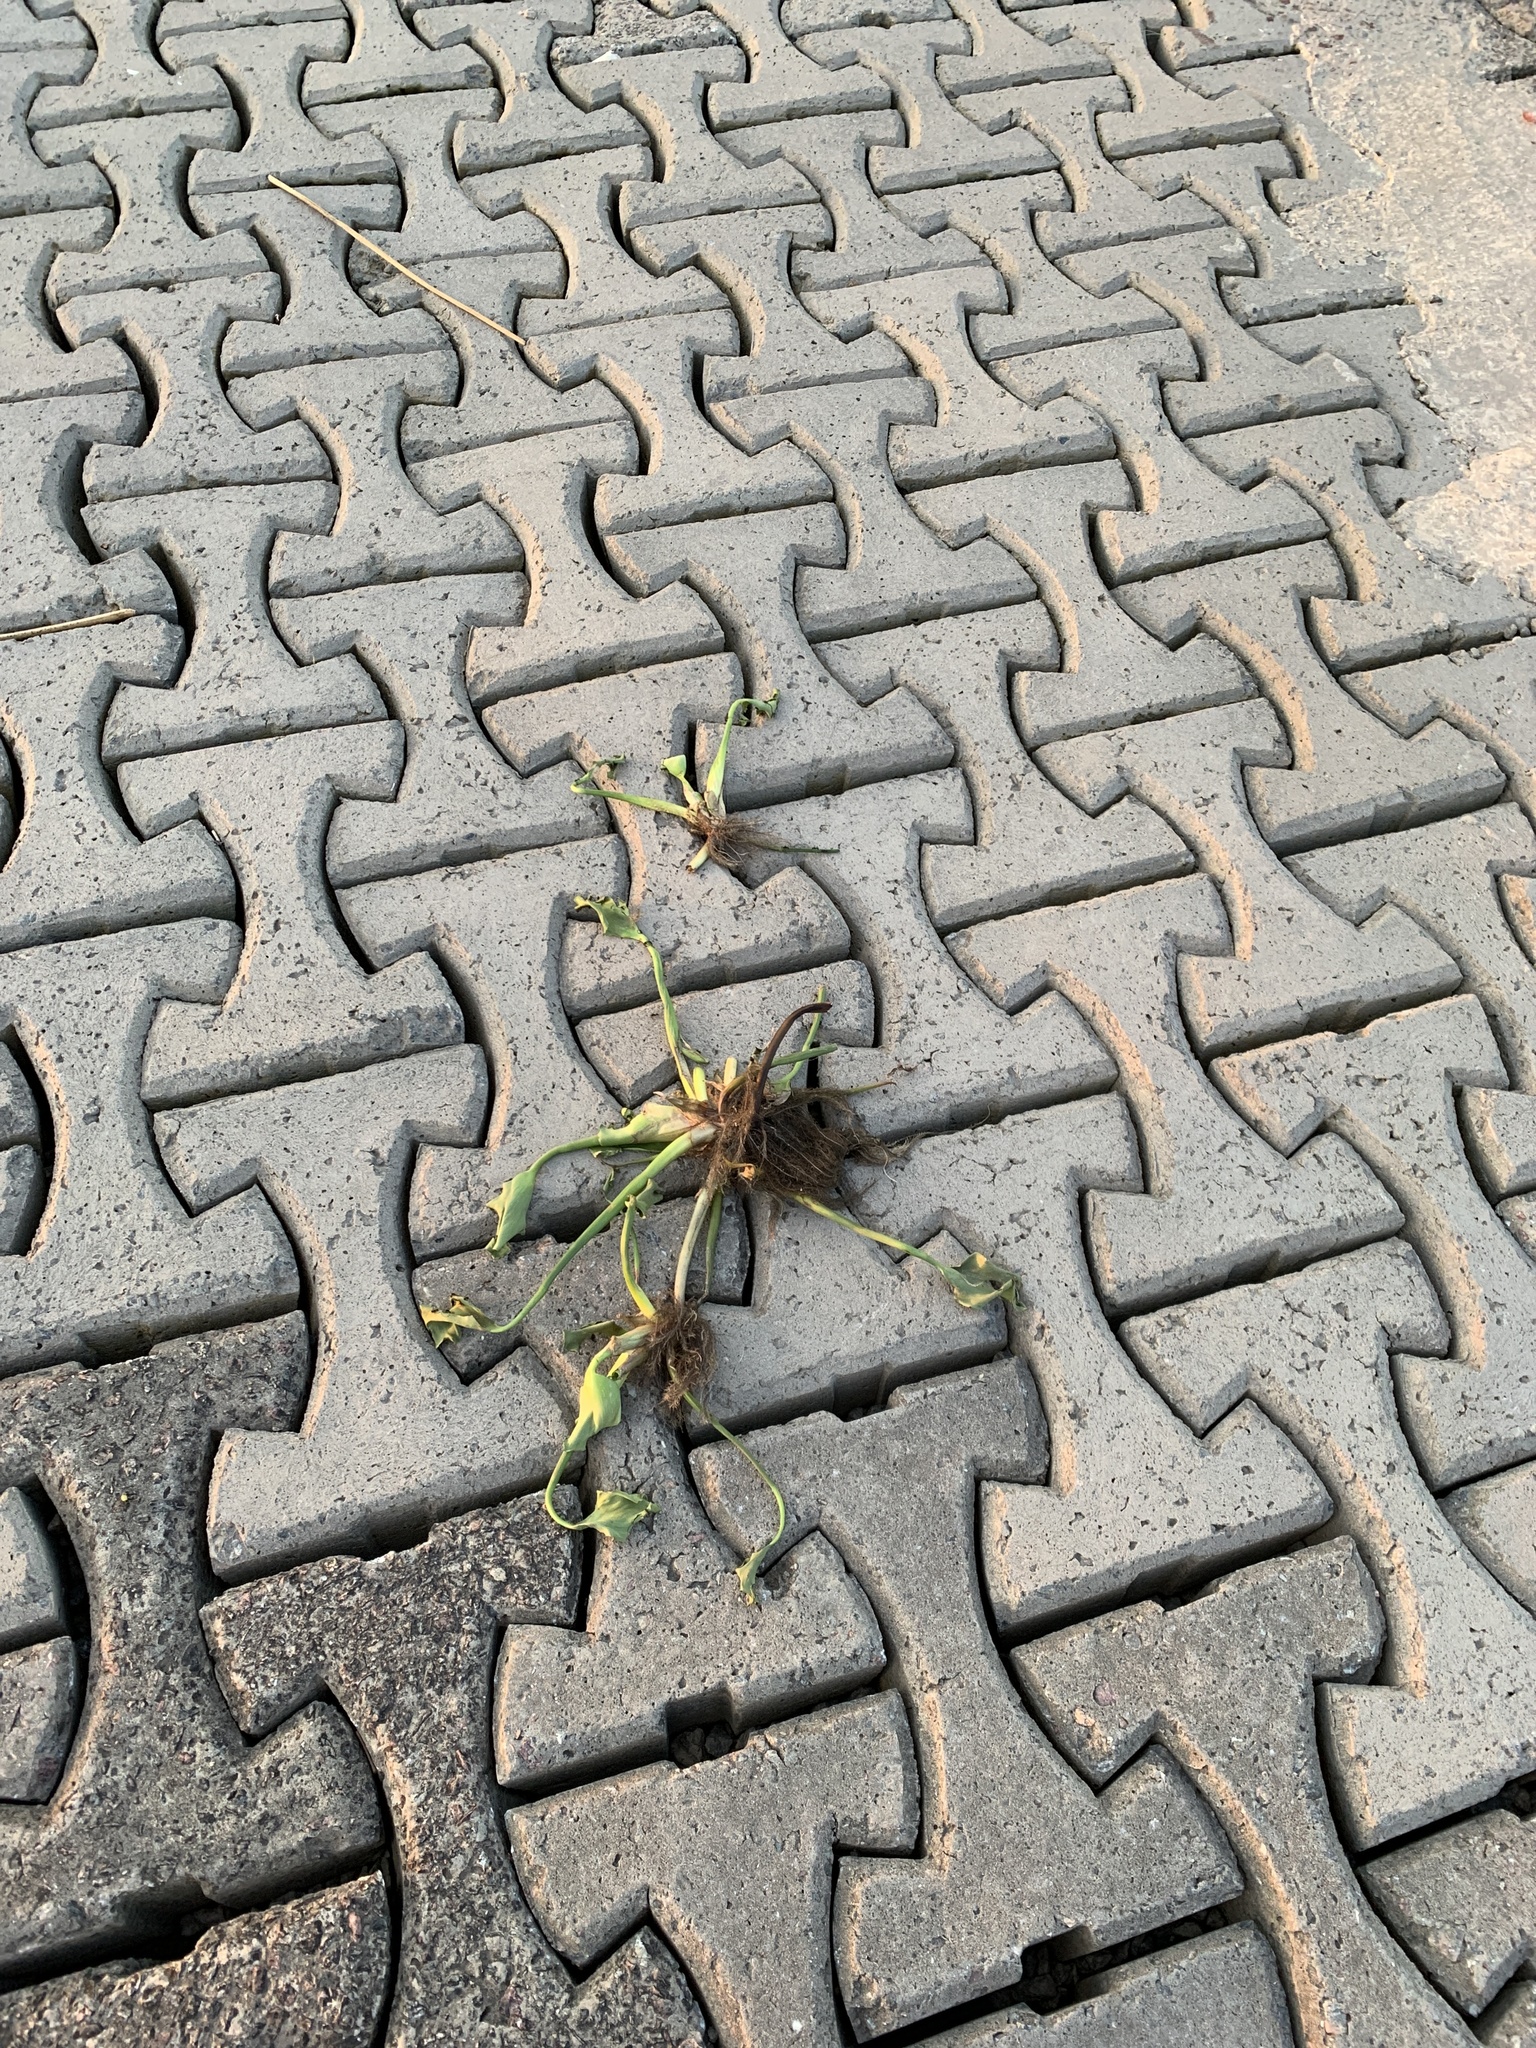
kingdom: Plantae
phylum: Tracheophyta
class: Liliopsida
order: Commelinales
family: Pontederiaceae
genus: Pontederia
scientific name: Pontederia crassipes
